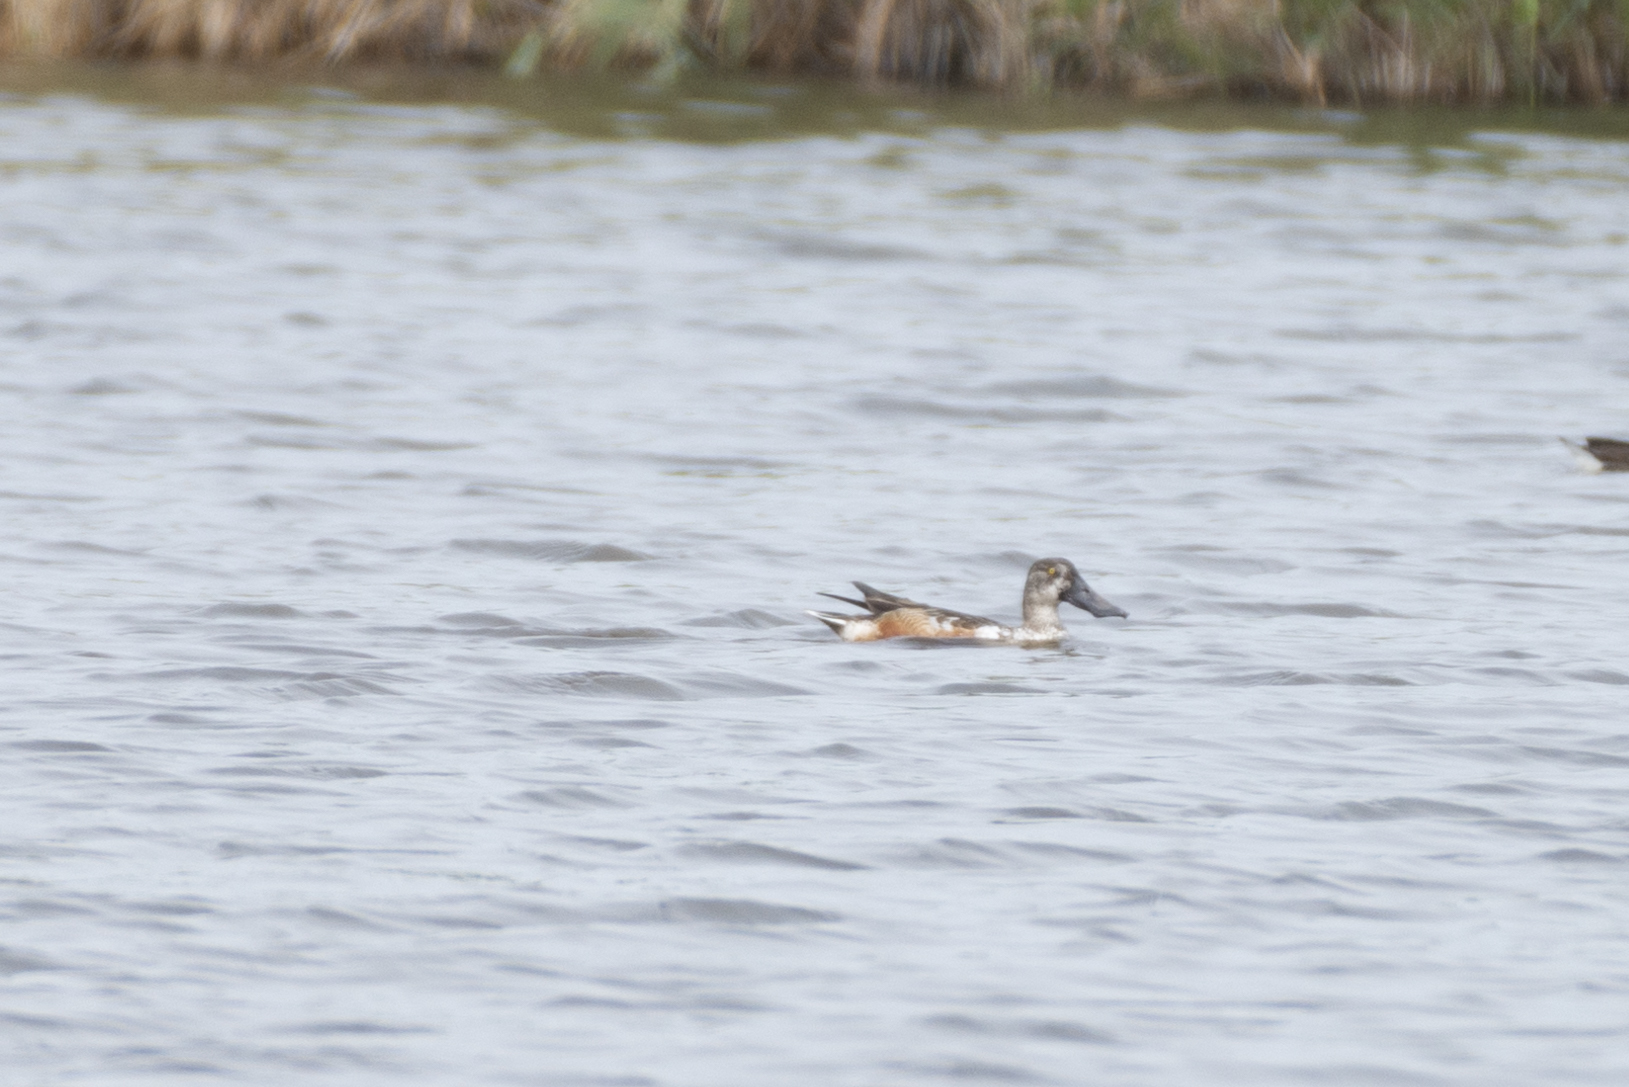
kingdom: Animalia
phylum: Chordata
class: Aves
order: Anseriformes
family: Anatidae
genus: Spatula
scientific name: Spatula clypeata
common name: Northern shoveler
